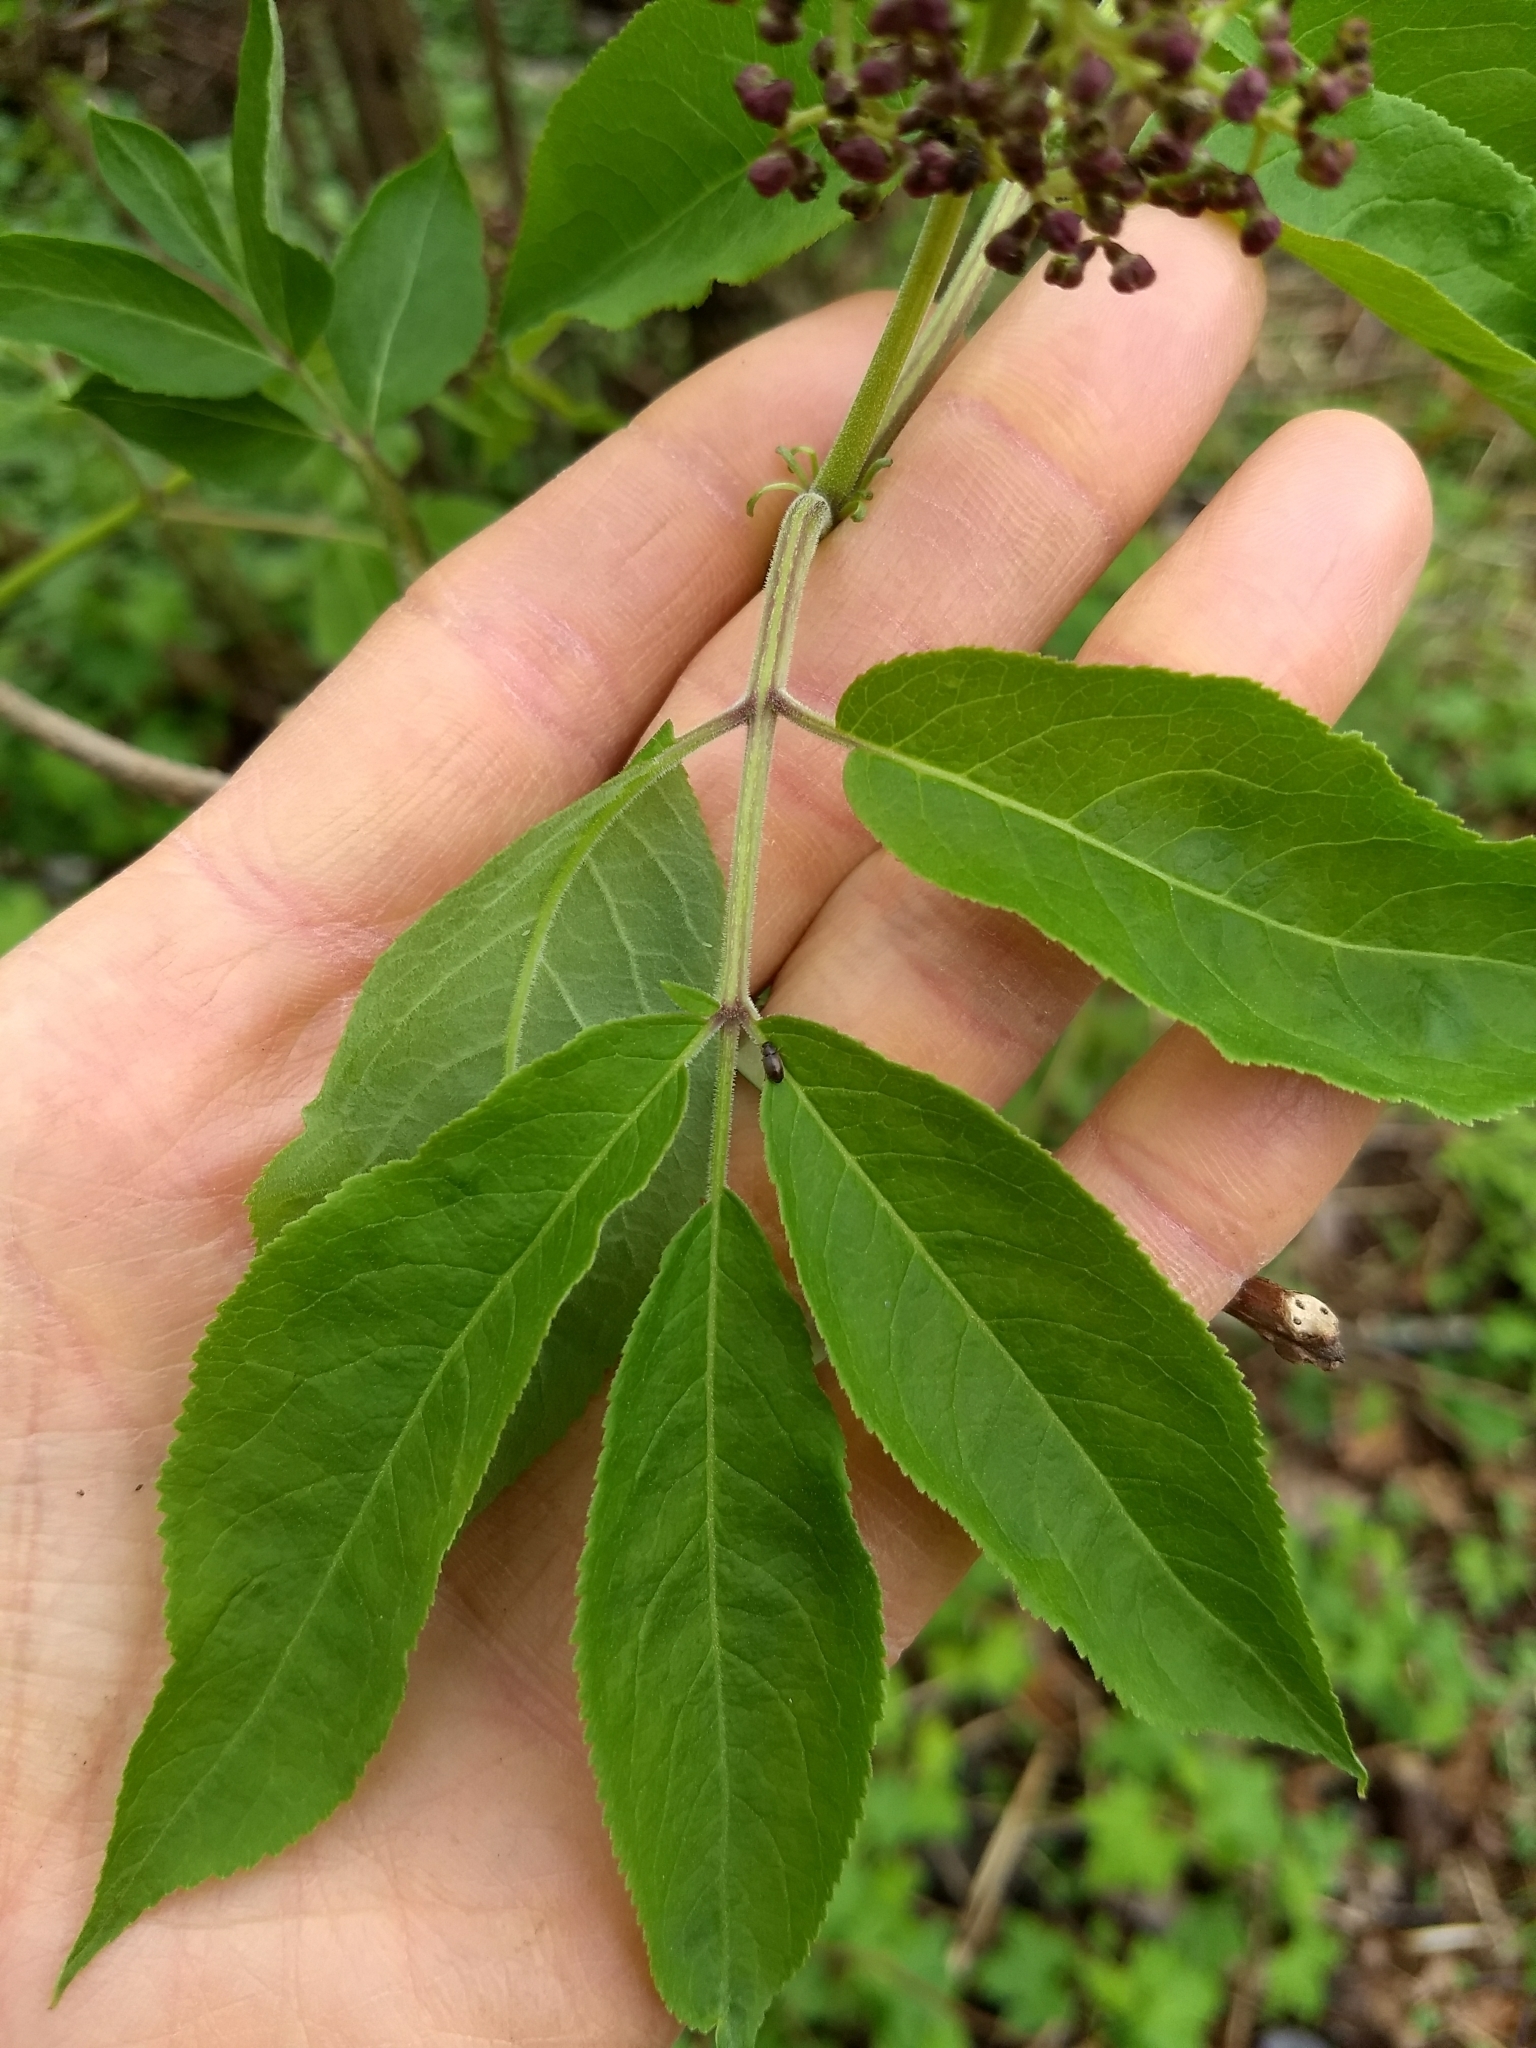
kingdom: Plantae
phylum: Tracheophyta
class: Magnoliopsida
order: Dipsacales
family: Viburnaceae
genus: Sambucus
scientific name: Sambucus racemosa
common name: Red-berried elder
